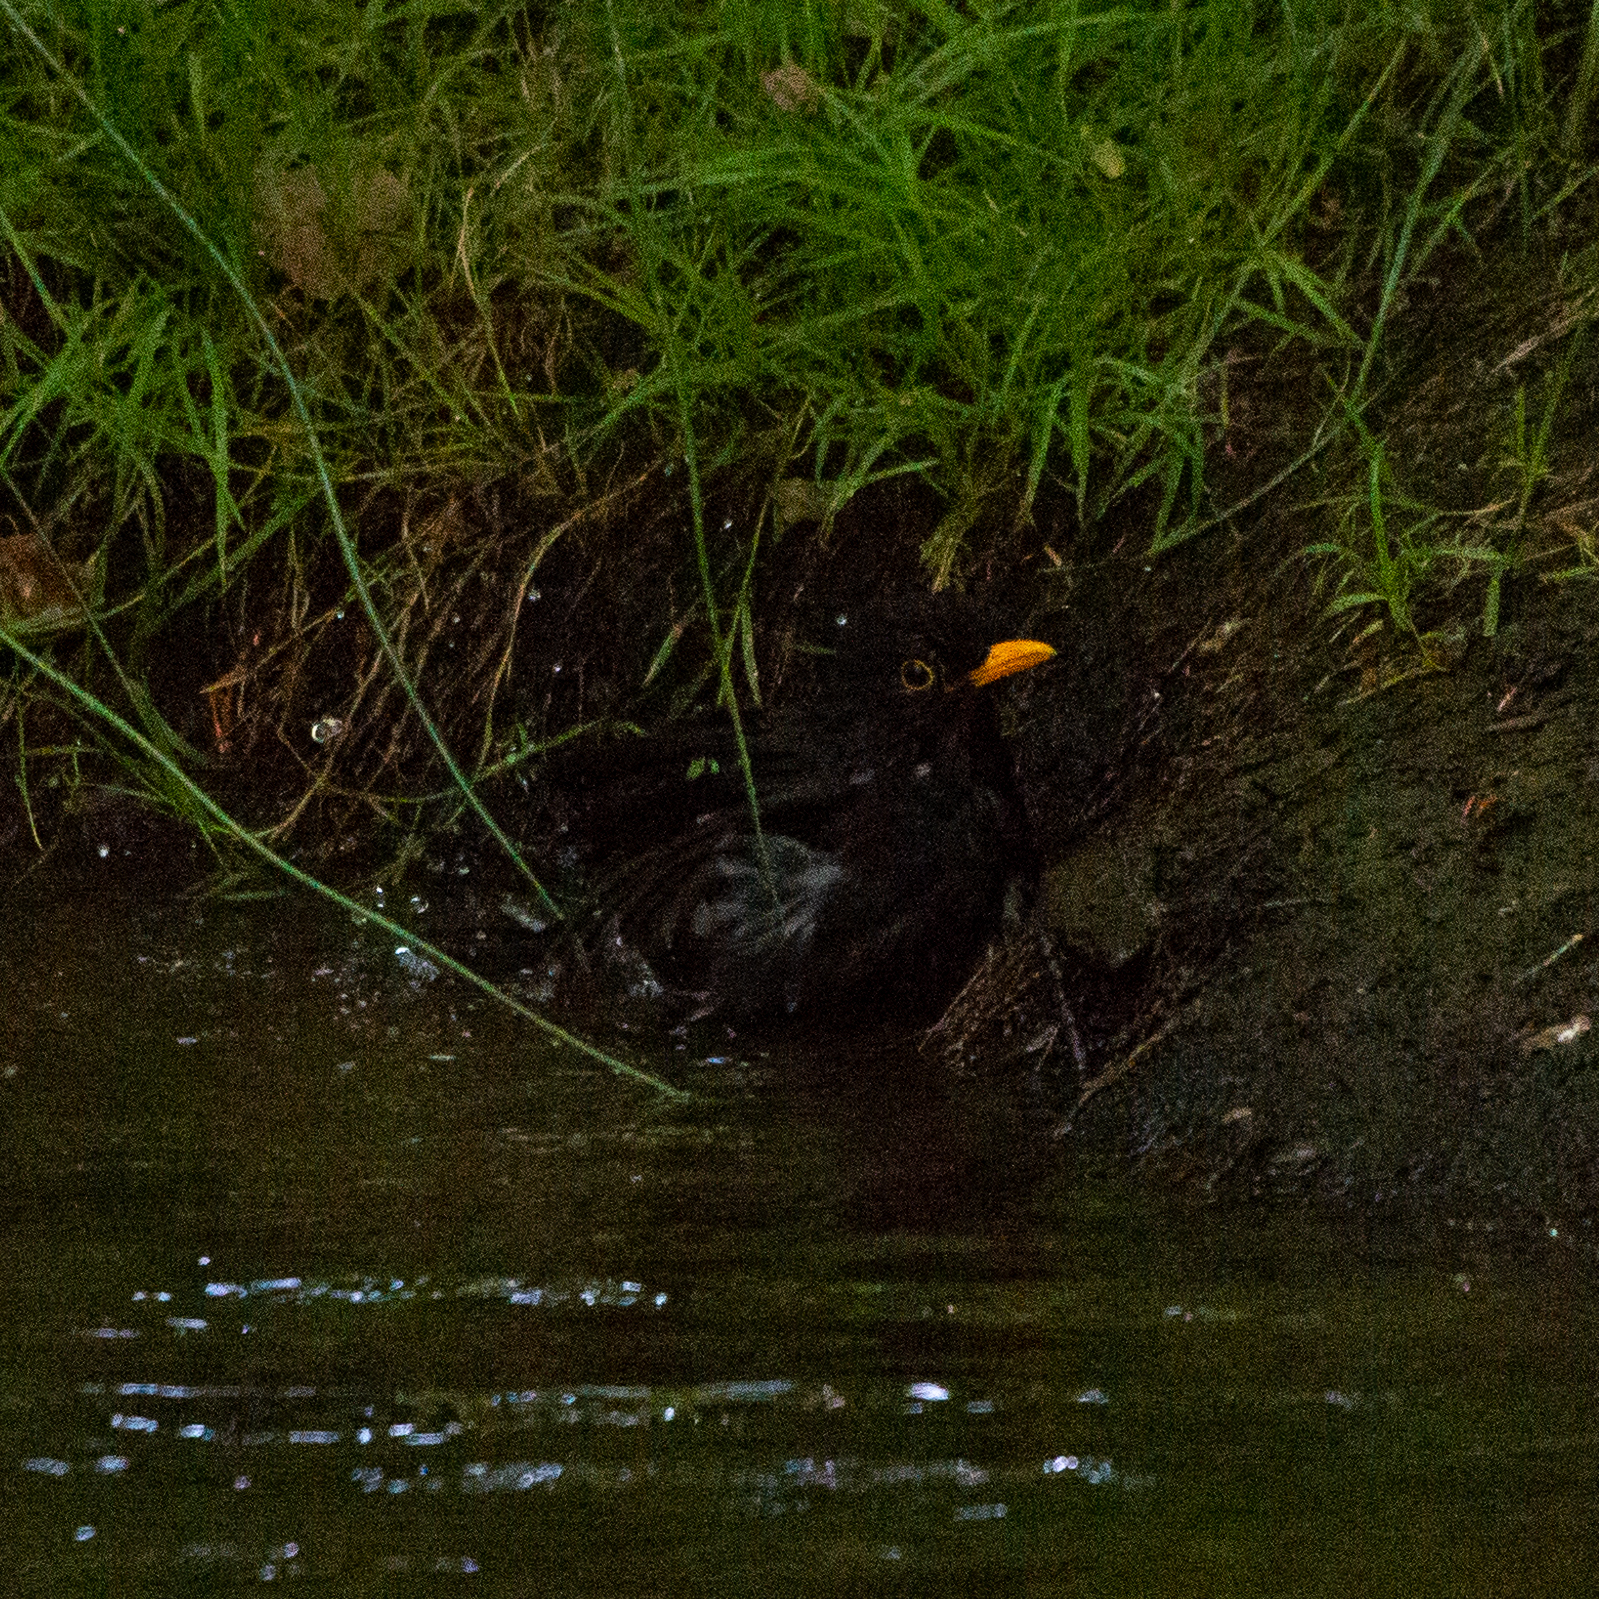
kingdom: Animalia
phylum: Chordata
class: Aves
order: Passeriformes
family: Turdidae
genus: Turdus
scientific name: Turdus merula
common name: Common blackbird
